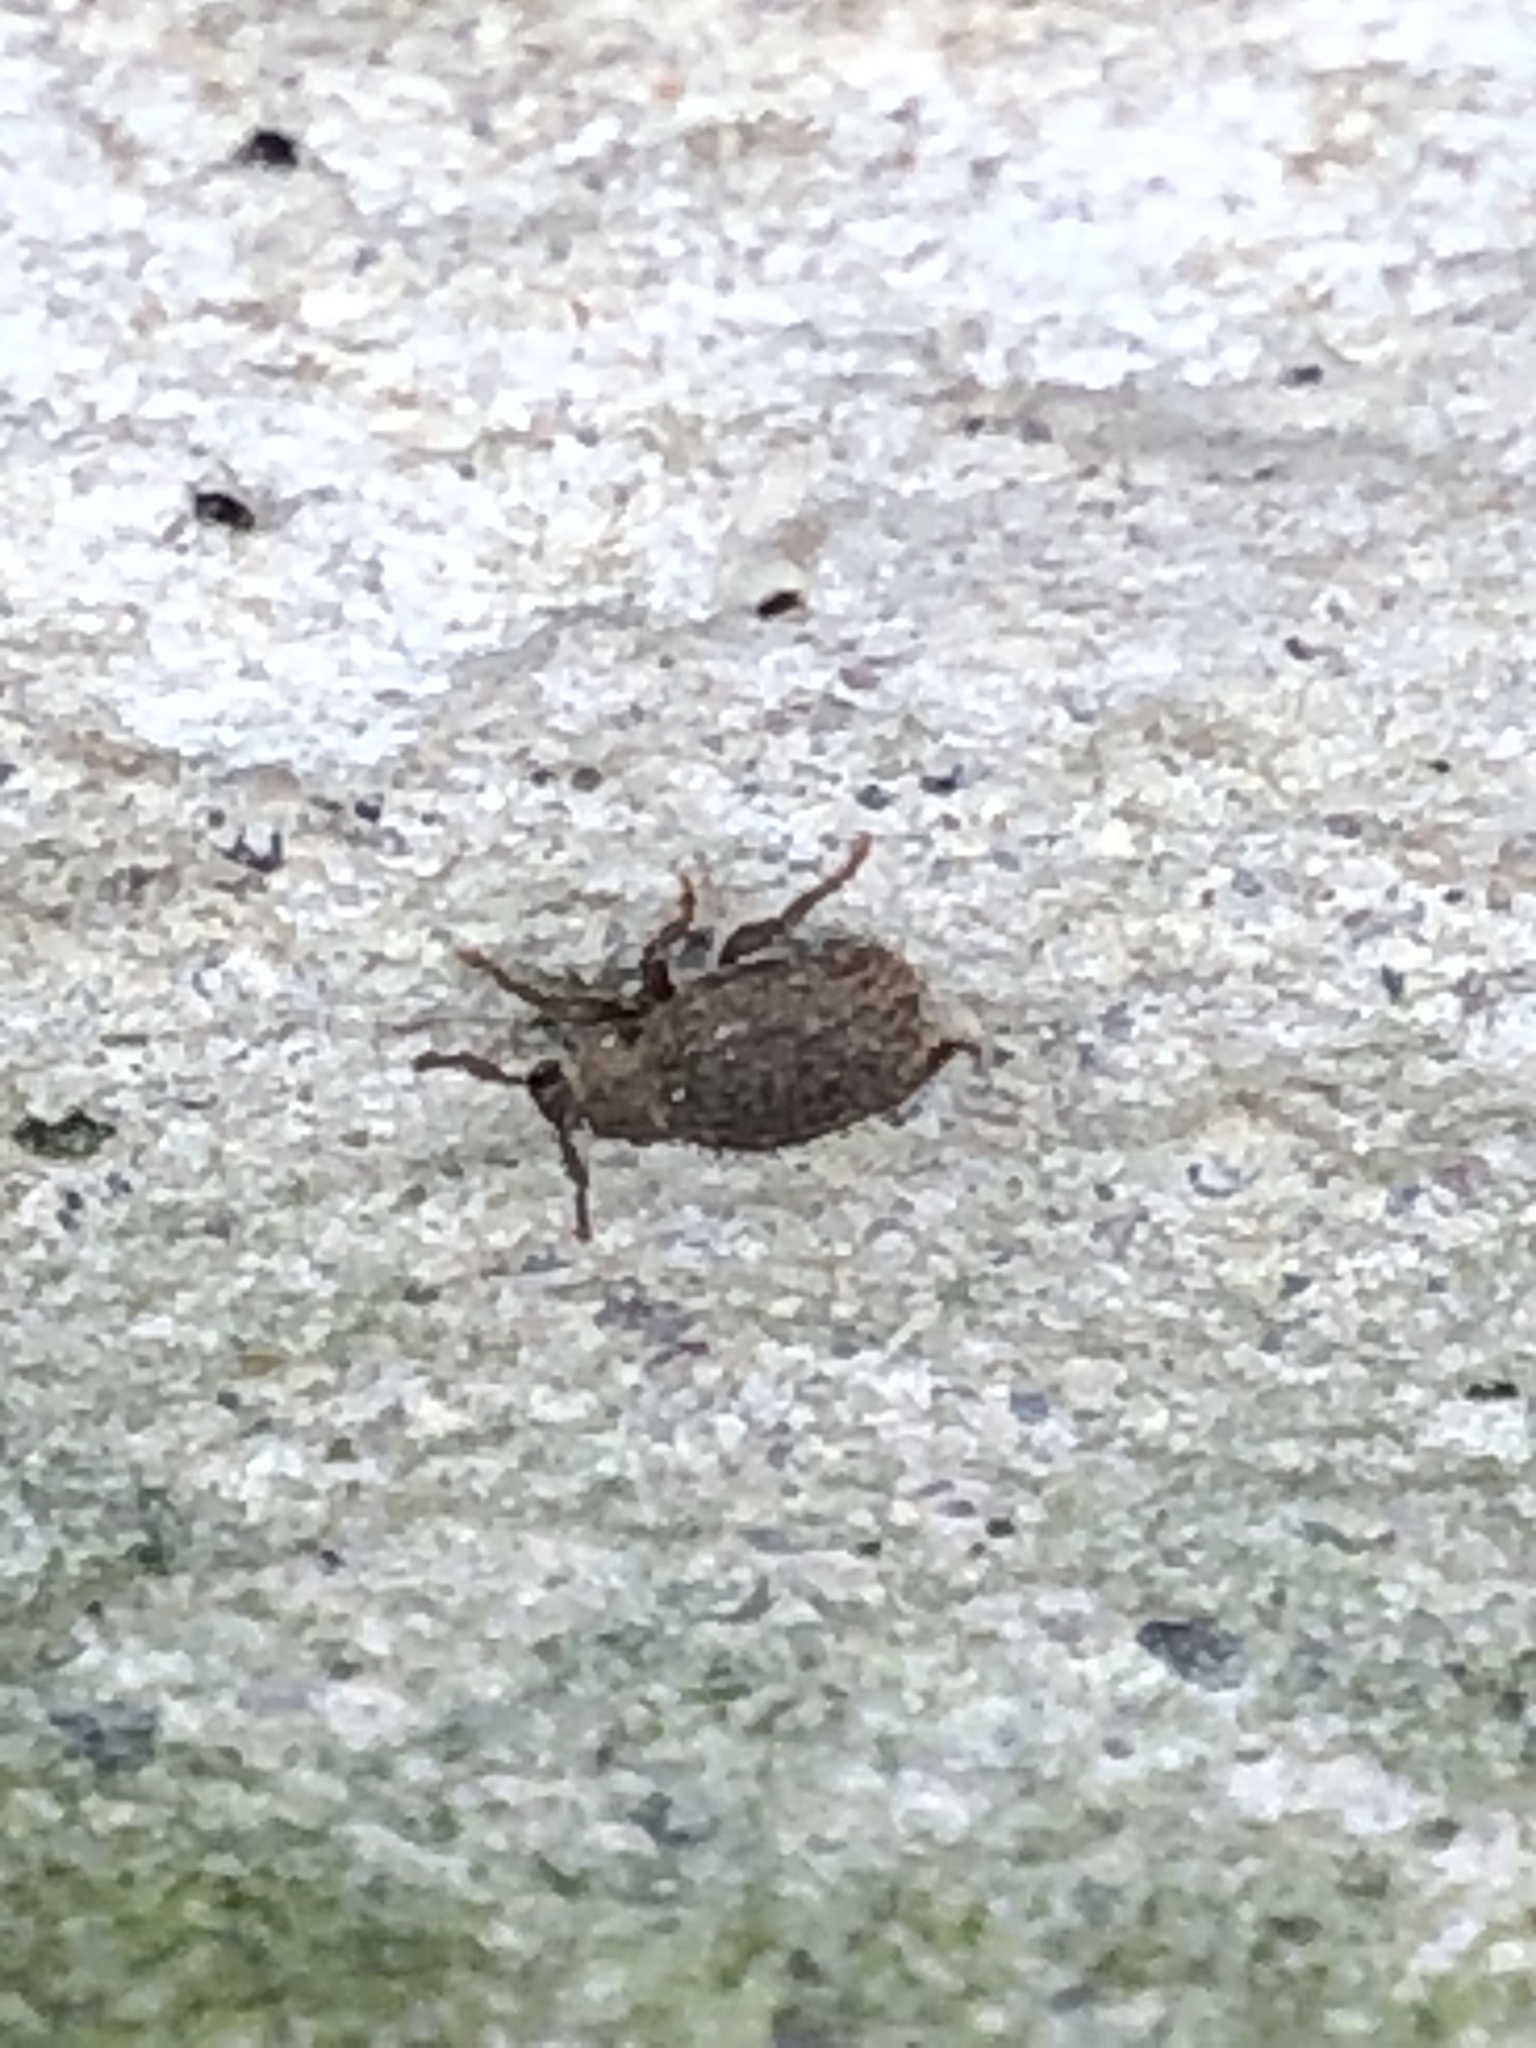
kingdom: Animalia
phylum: Arthropoda
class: Insecta
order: Coleoptera
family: Curculionidae
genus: Romualdius
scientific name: Romualdius scaber
